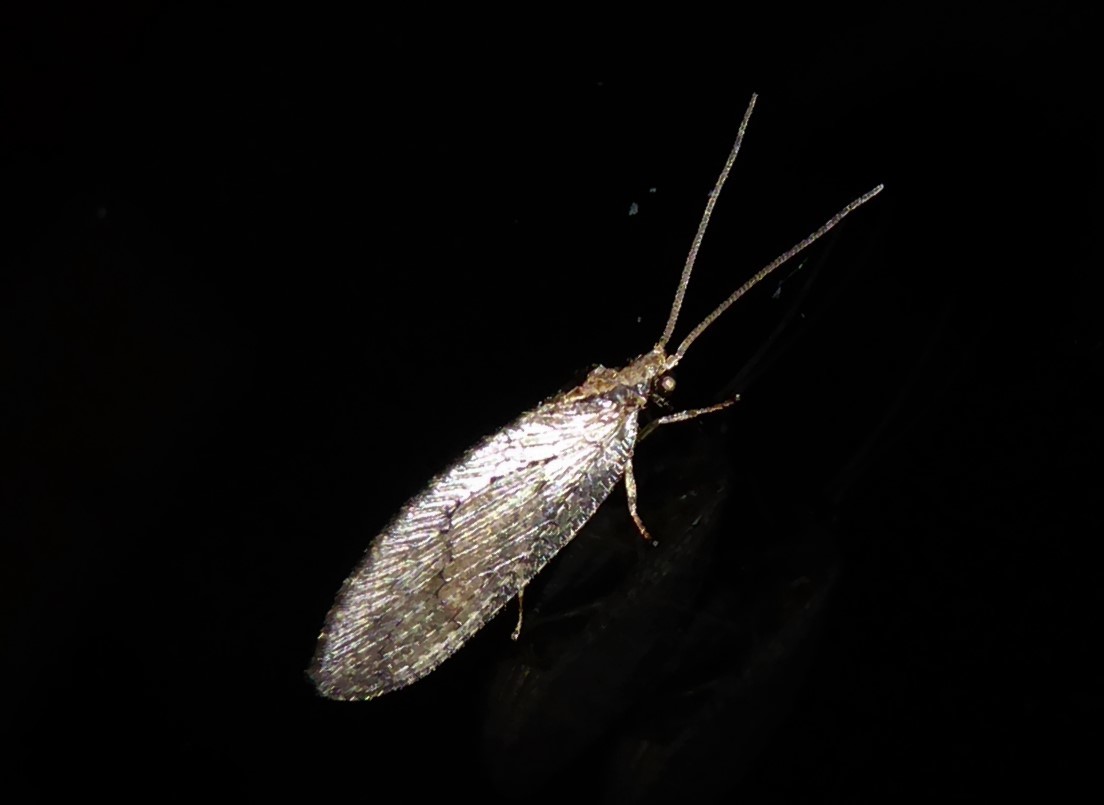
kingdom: Animalia
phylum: Arthropoda
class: Insecta
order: Neuroptera
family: Hemerobiidae
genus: Wesmaelius
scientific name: Wesmaelius subnebulosus
